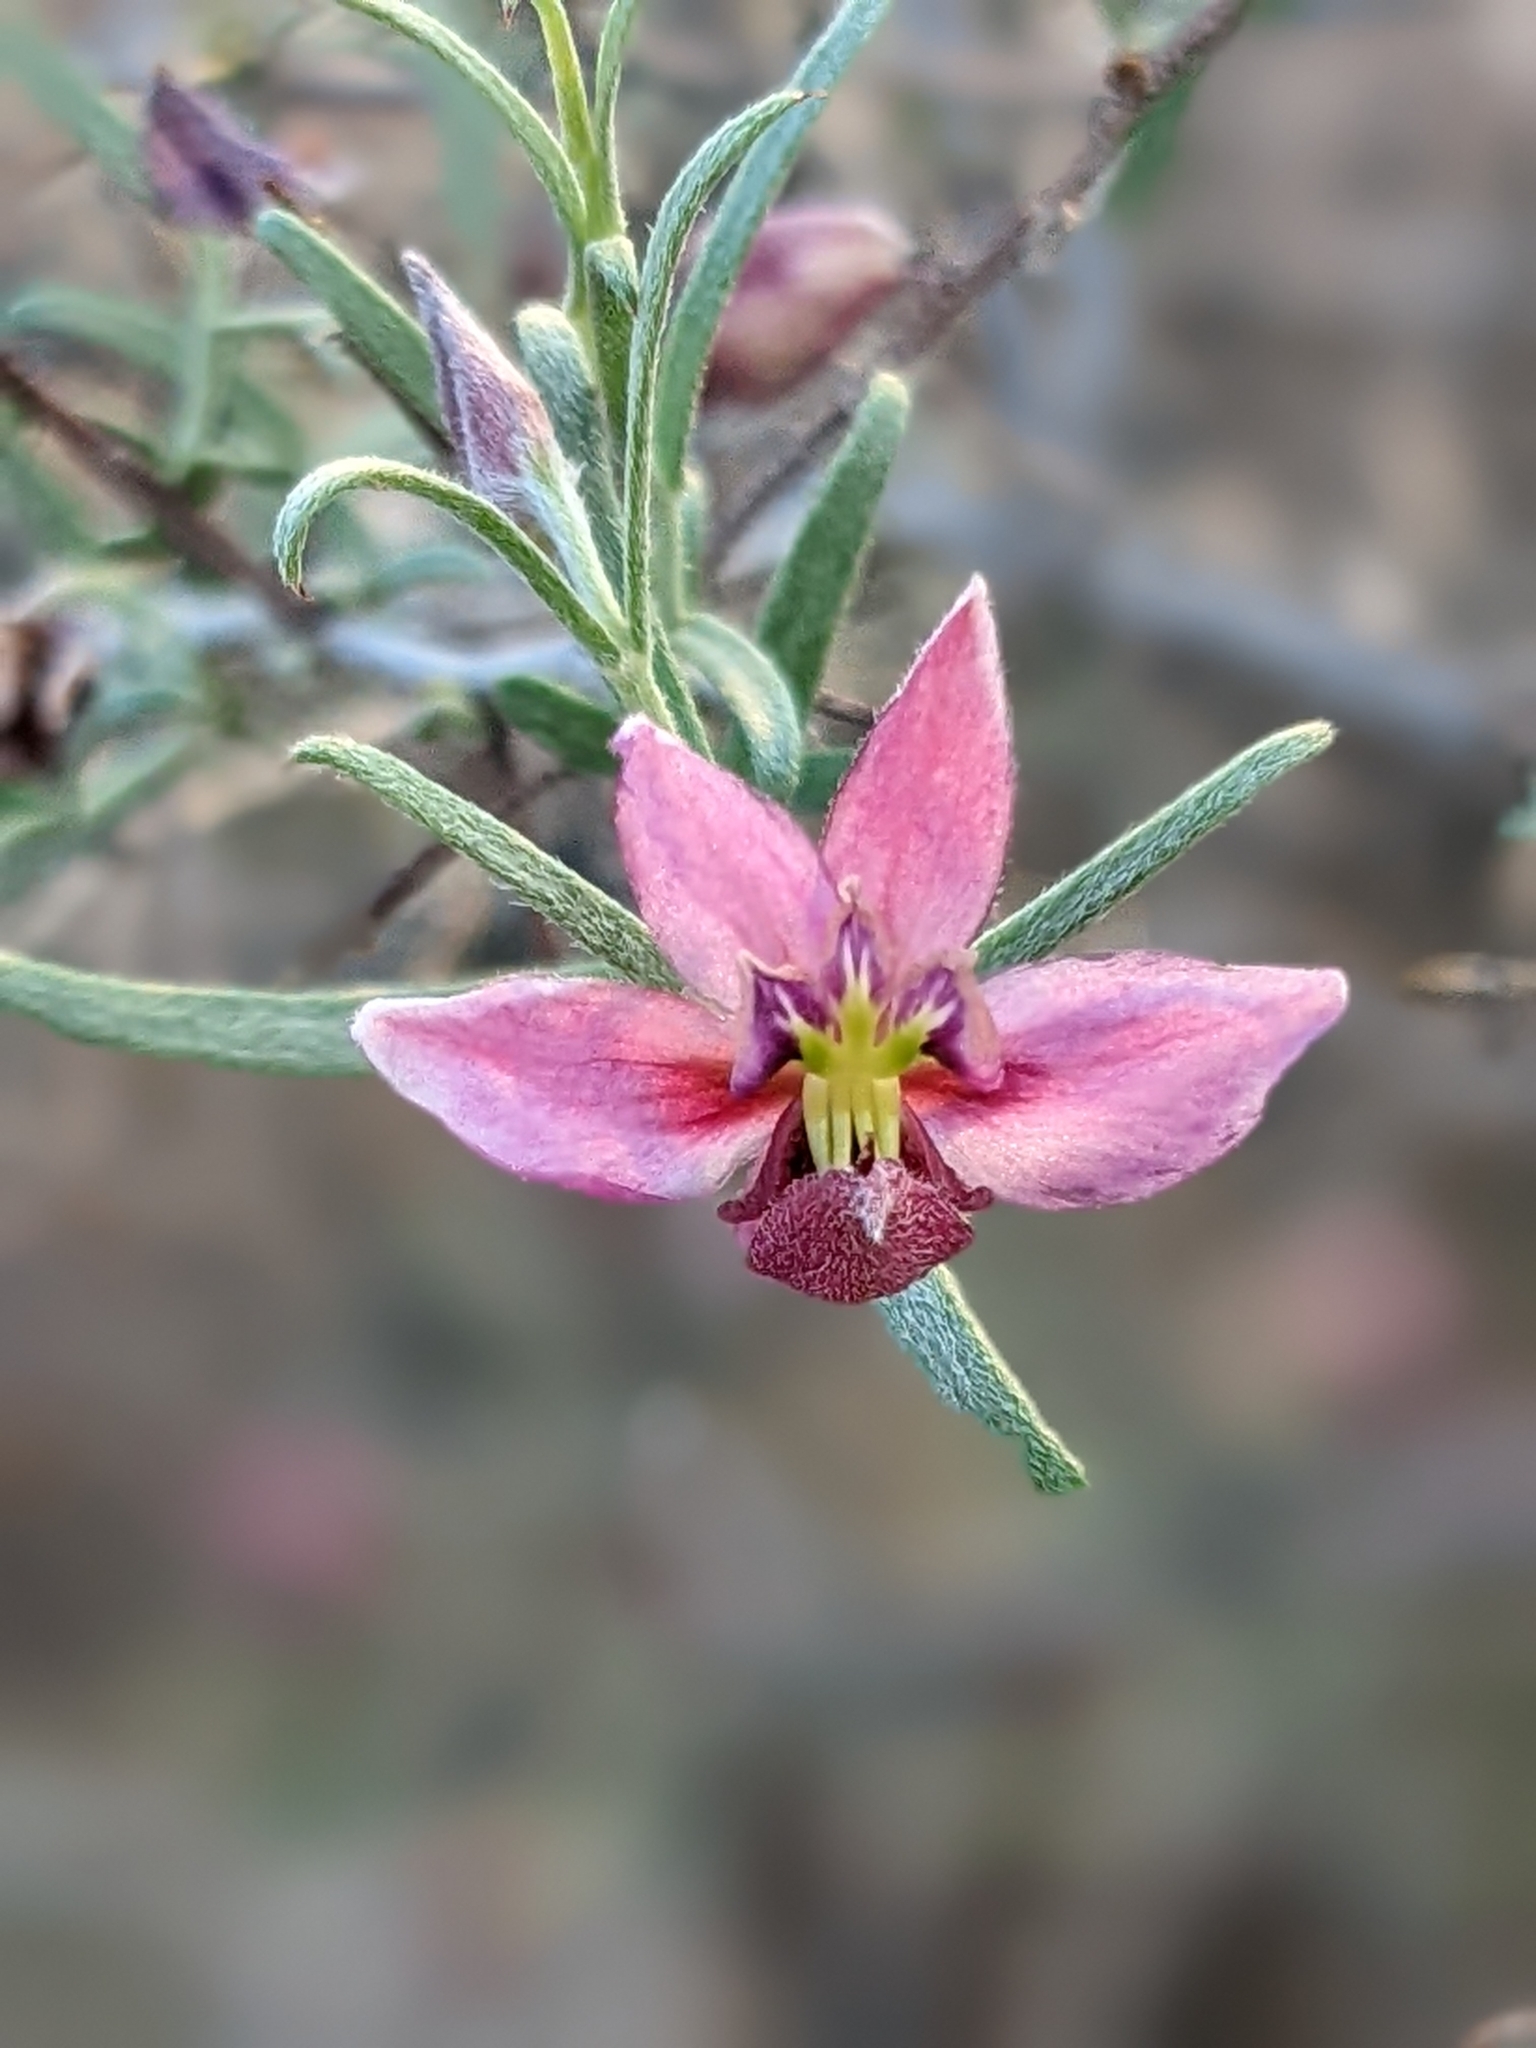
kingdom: Plantae
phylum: Tracheophyta
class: Magnoliopsida
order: Zygophyllales
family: Krameriaceae
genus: Krameria
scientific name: Krameria erecta
